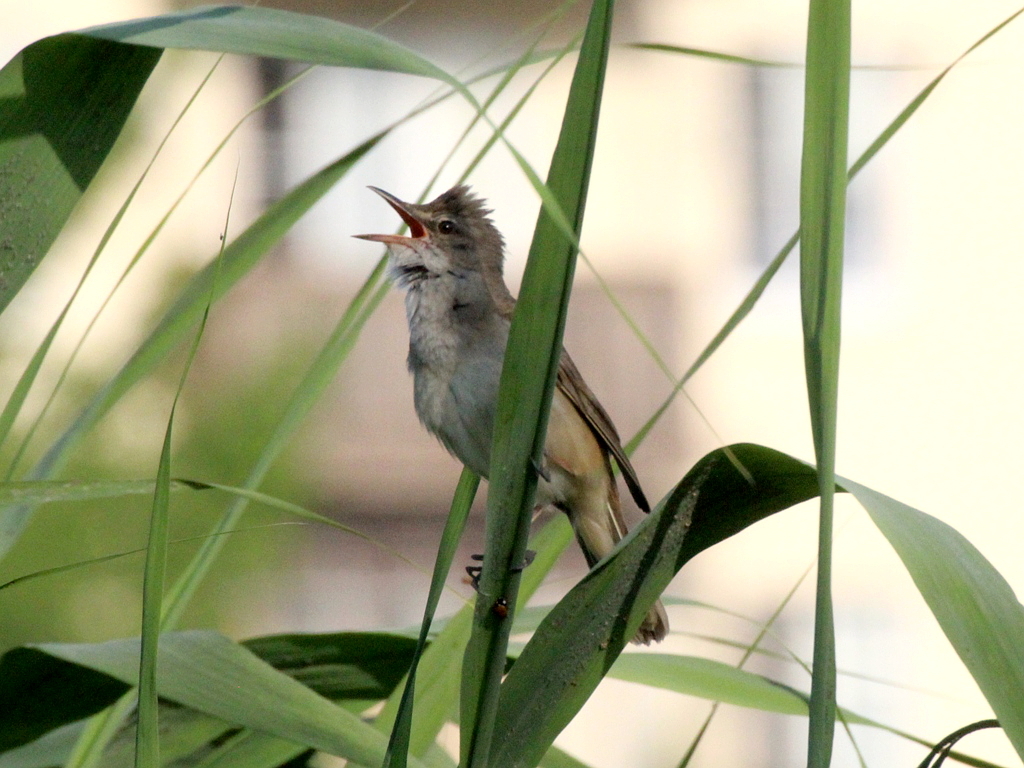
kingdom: Animalia
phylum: Chordata
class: Aves
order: Passeriformes
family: Acrocephalidae
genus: Acrocephalus
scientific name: Acrocephalus arundinaceus
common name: Great reed warbler
